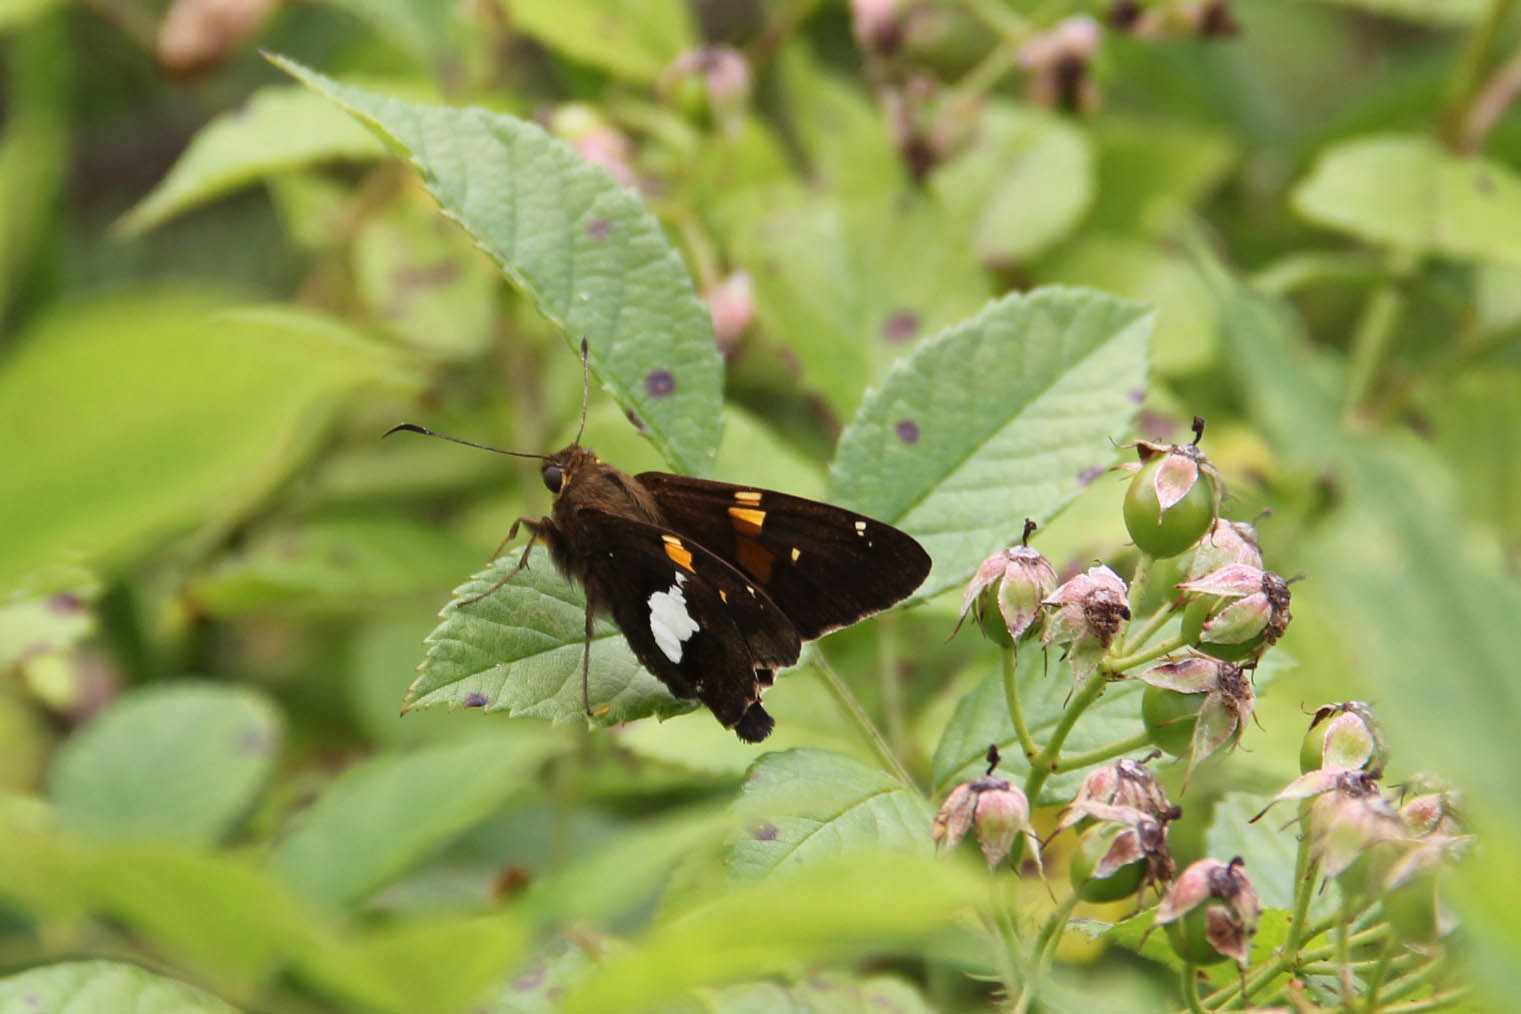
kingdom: Animalia
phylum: Arthropoda
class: Insecta
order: Lepidoptera
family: Hesperiidae
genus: Epargyreus
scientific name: Epargyreus clarus
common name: Silver-spotted skipper
